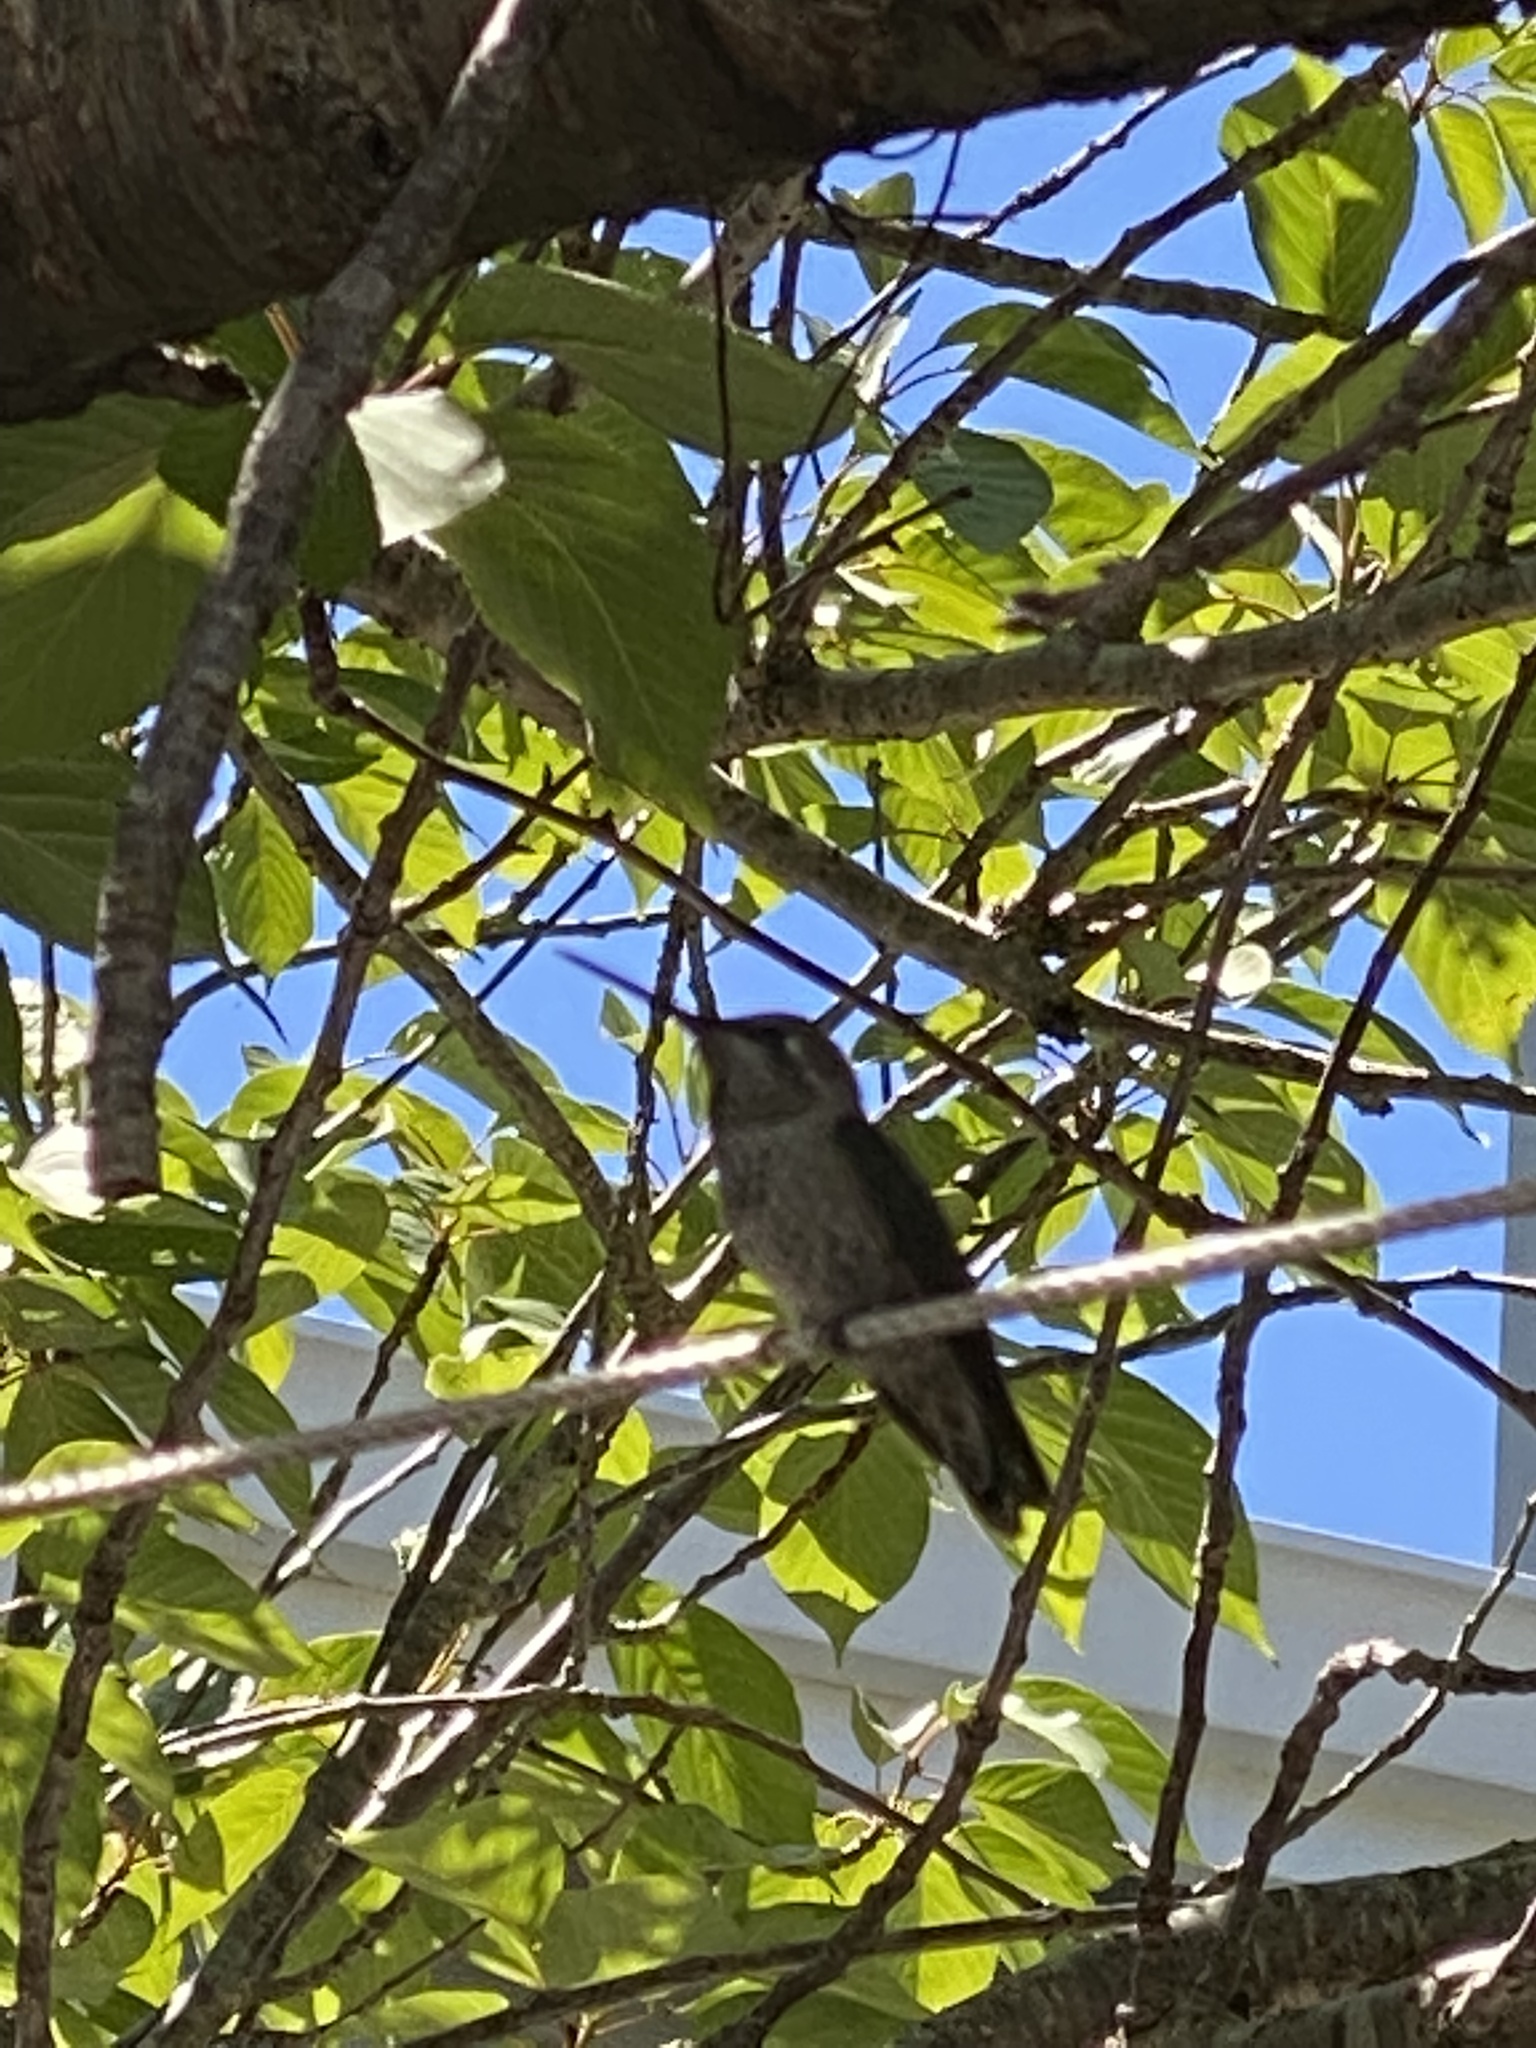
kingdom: Animalia
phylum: Chordata
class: Aves
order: Apodiformes
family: Trochilidae
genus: Calypte
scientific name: Calypte anna
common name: Anna's hummingbird
